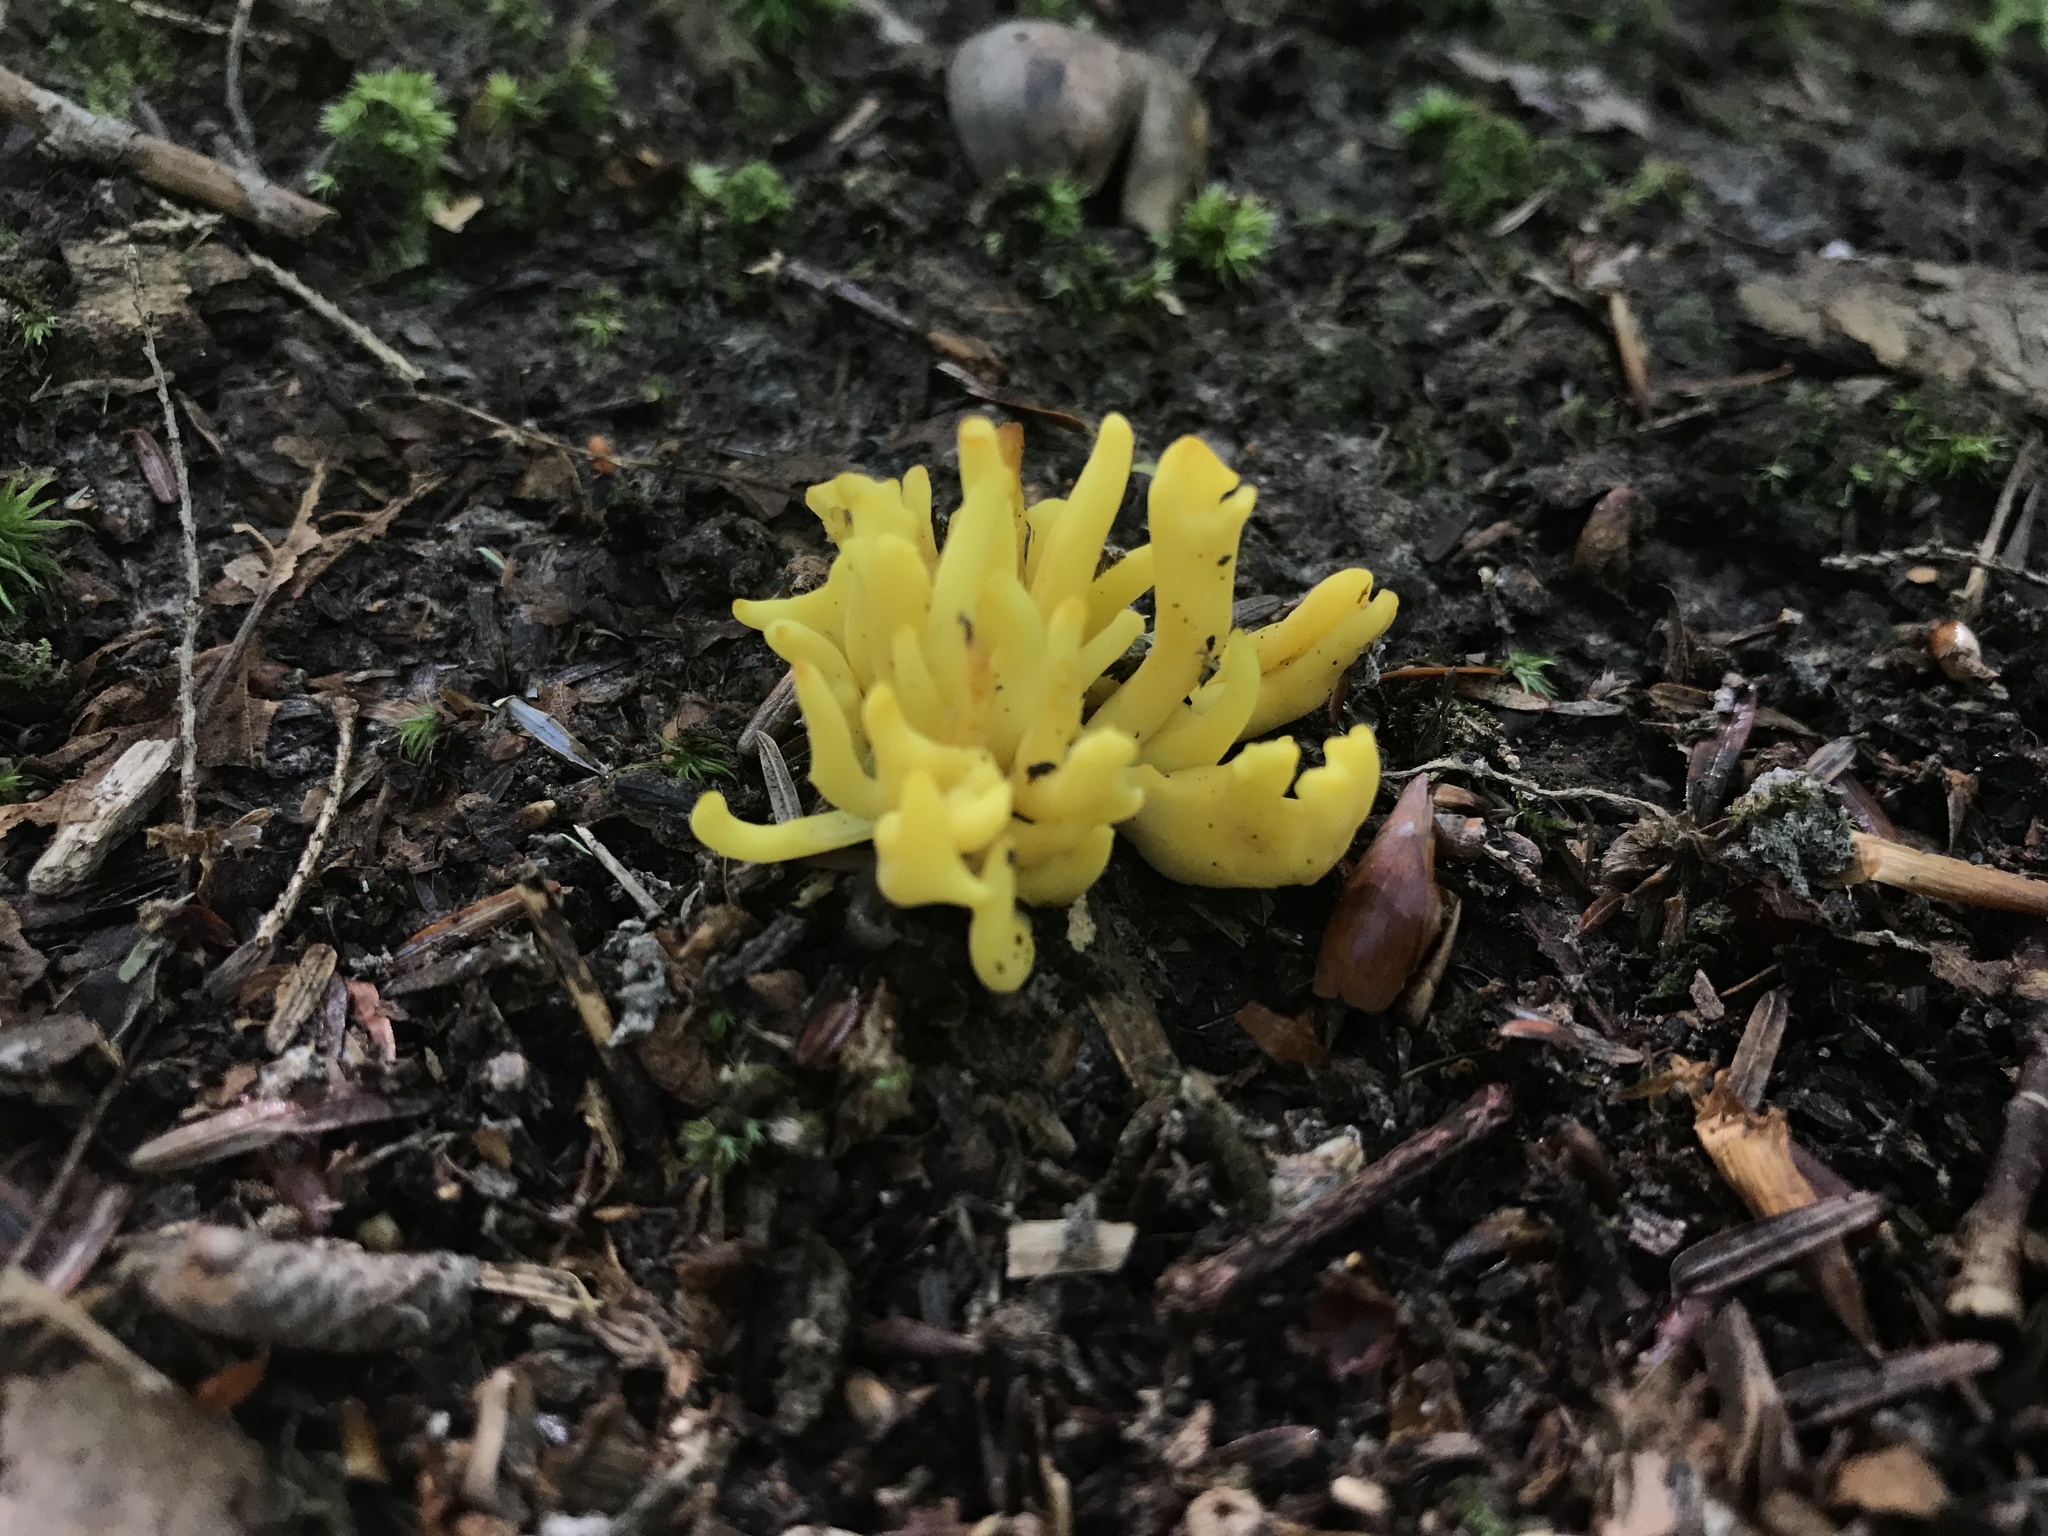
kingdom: Fungi
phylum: Basidiomycota
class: Agaricomycetes
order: Agaricales
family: Clavariaceae
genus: Clavulinopsis
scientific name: Clavulinopsis fusiformis
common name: Golden spindles
